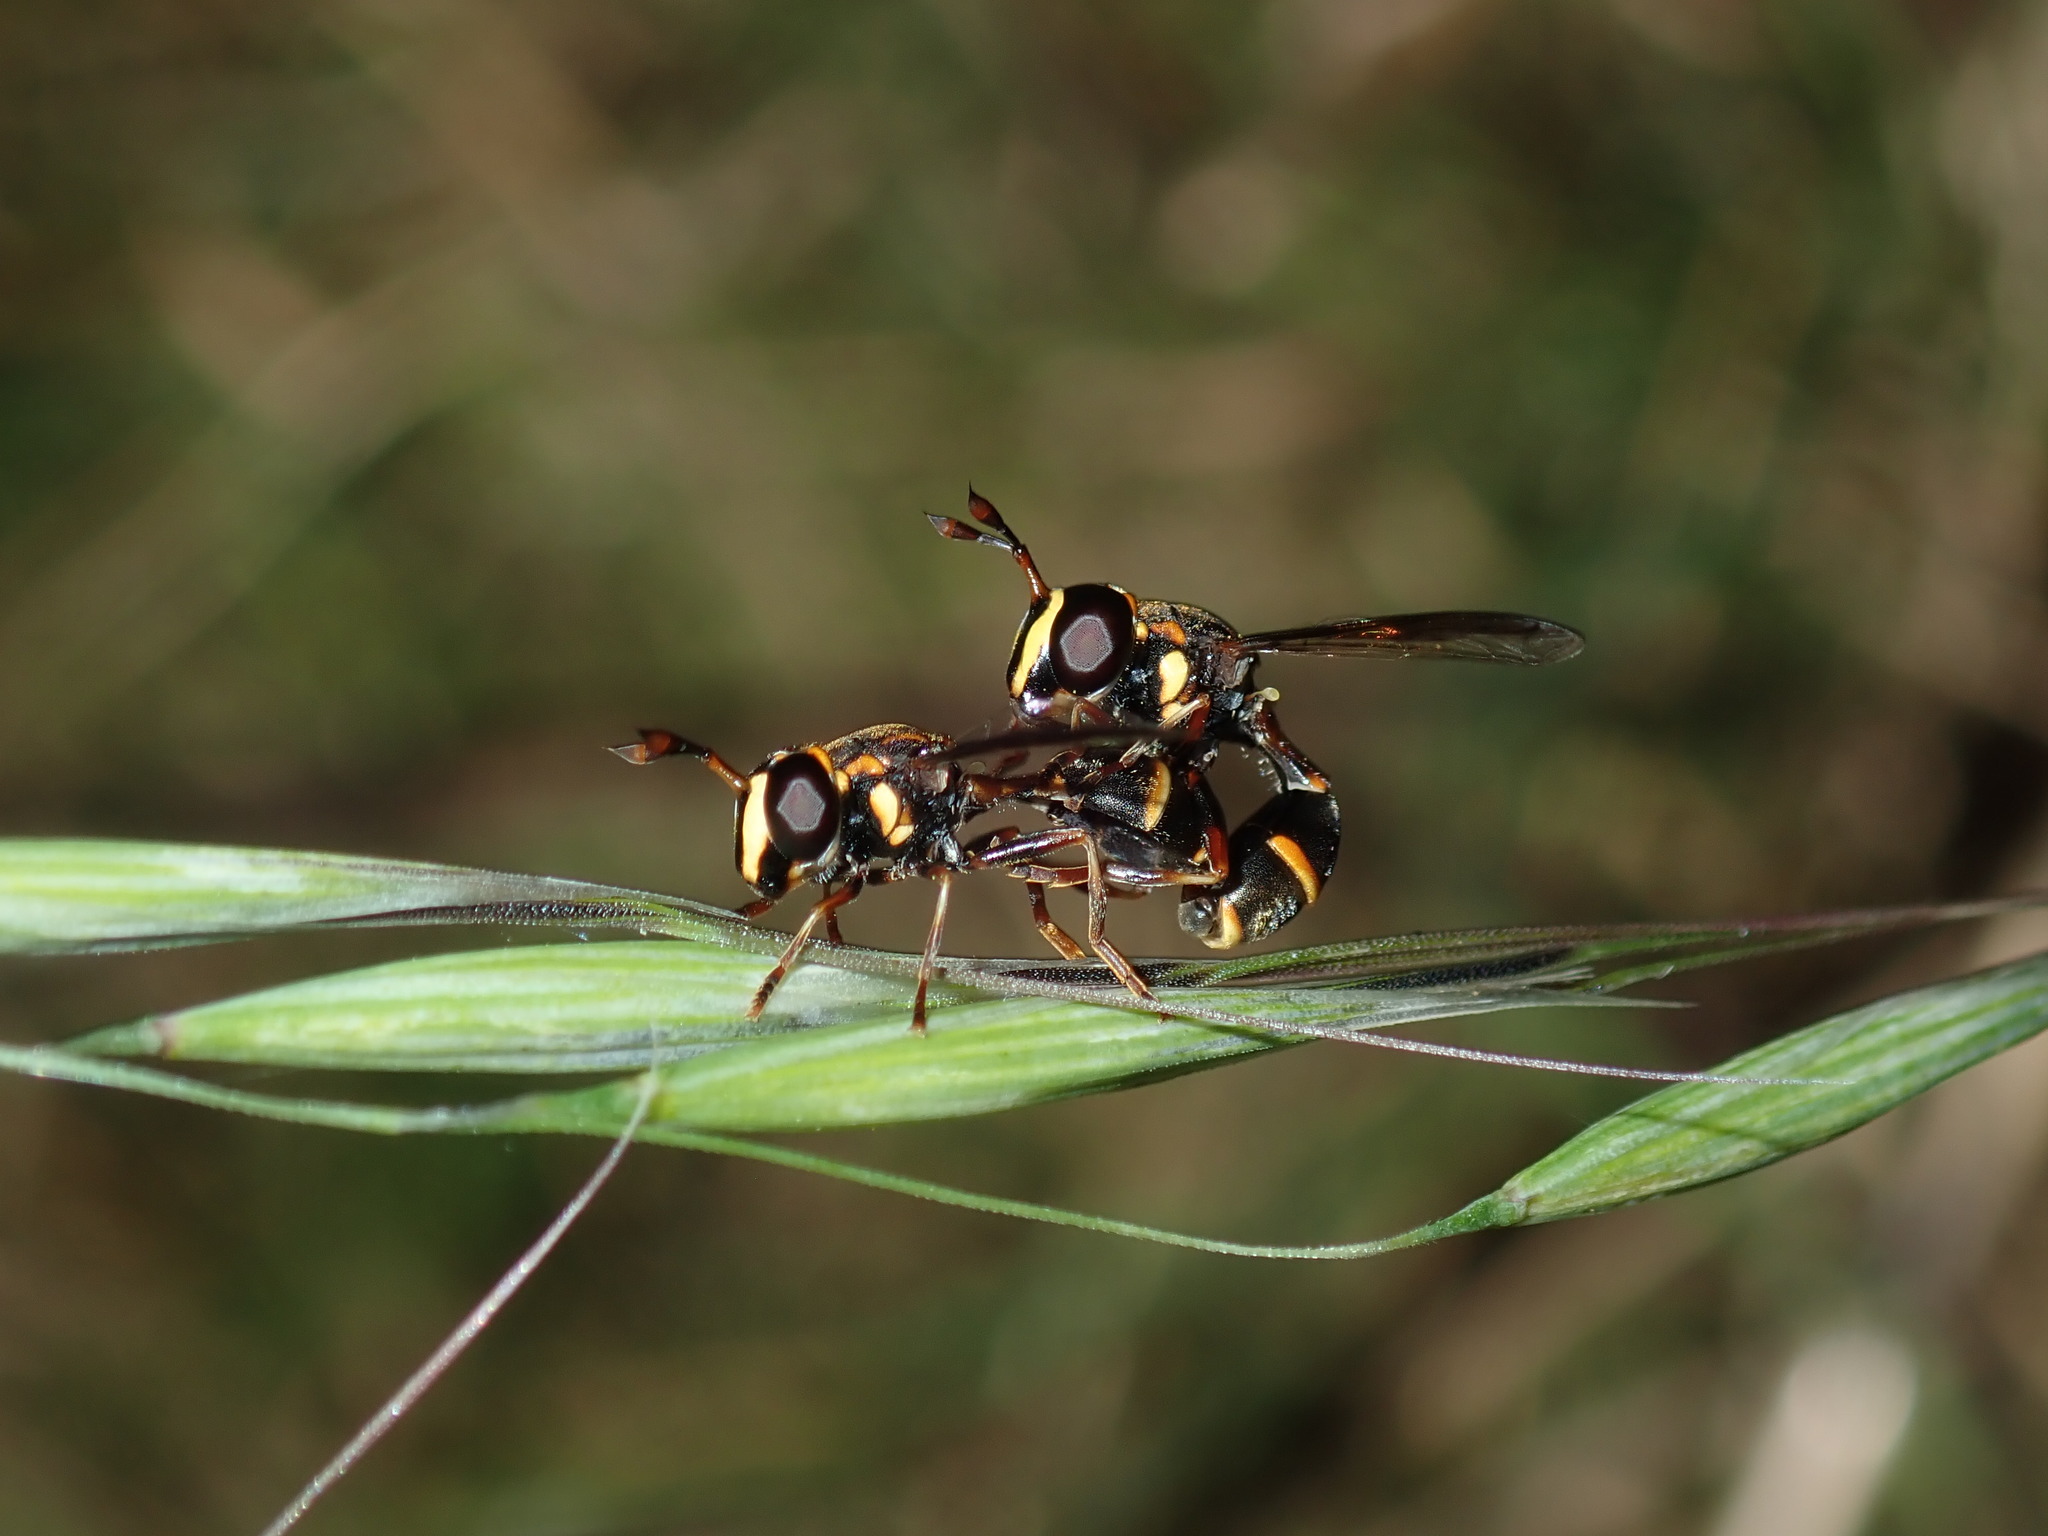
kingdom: Animalia
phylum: Arthropoda
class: Insecta
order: Diptera
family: Syrphidae
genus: Monoceromyia
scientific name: Monoceromyia macleayi
